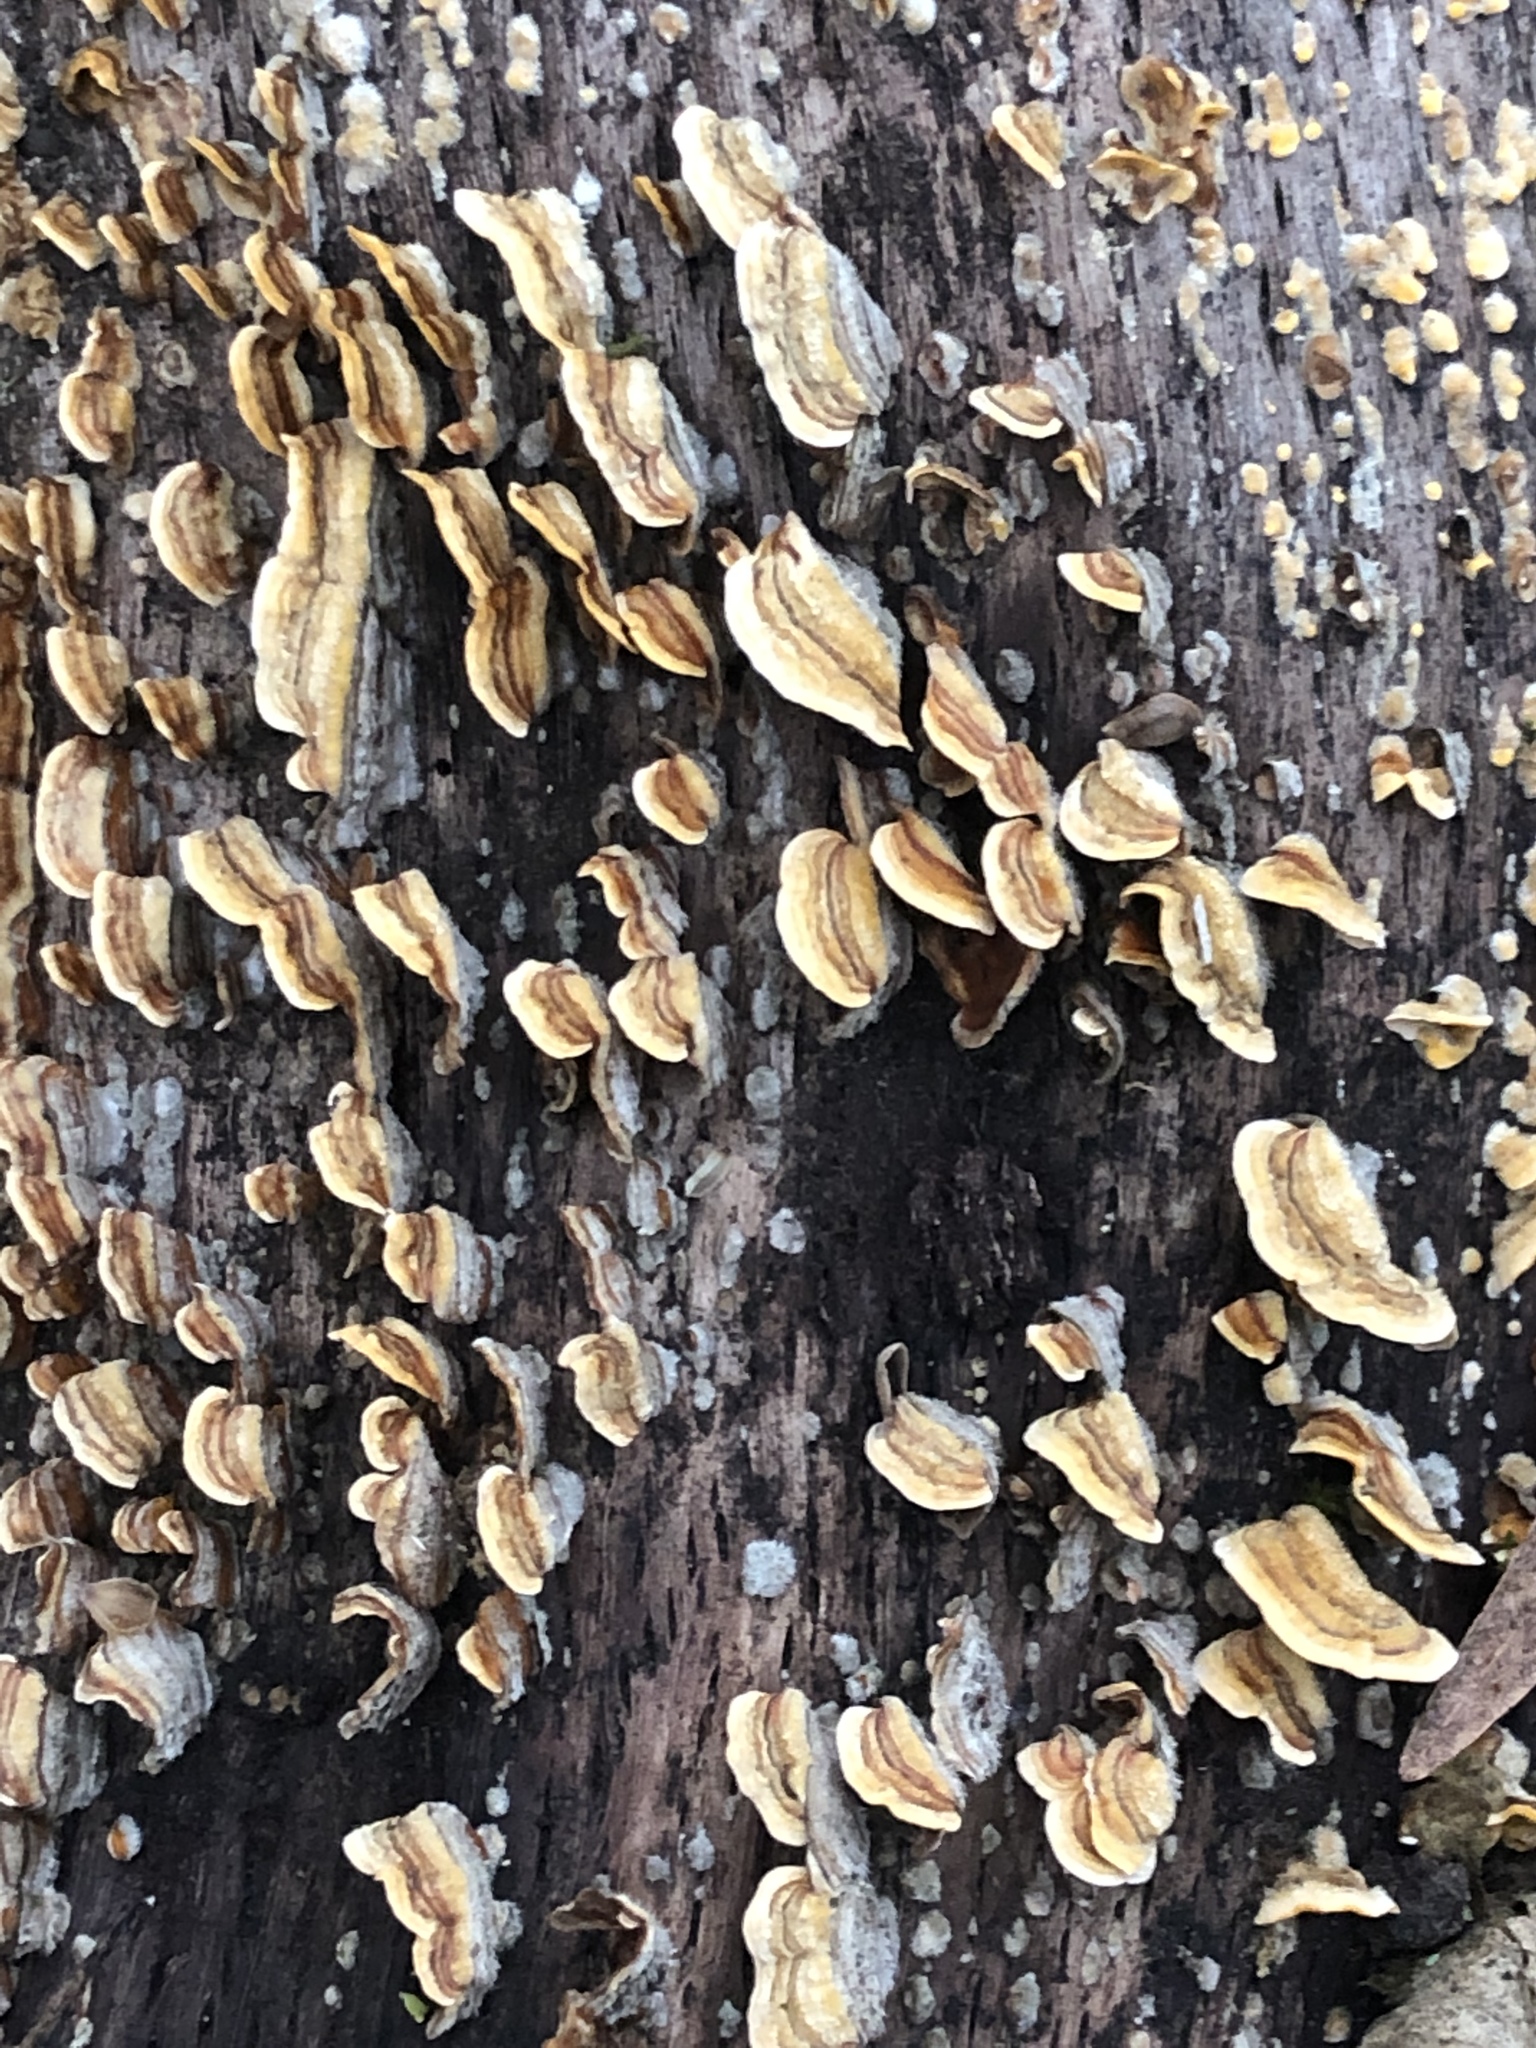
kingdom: Fungi
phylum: Basidiomycota
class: Agaricomycetes
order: Russulales
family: Stereaceae
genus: Stereum
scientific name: Stereum hirsutum
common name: Hairy curtain crust
